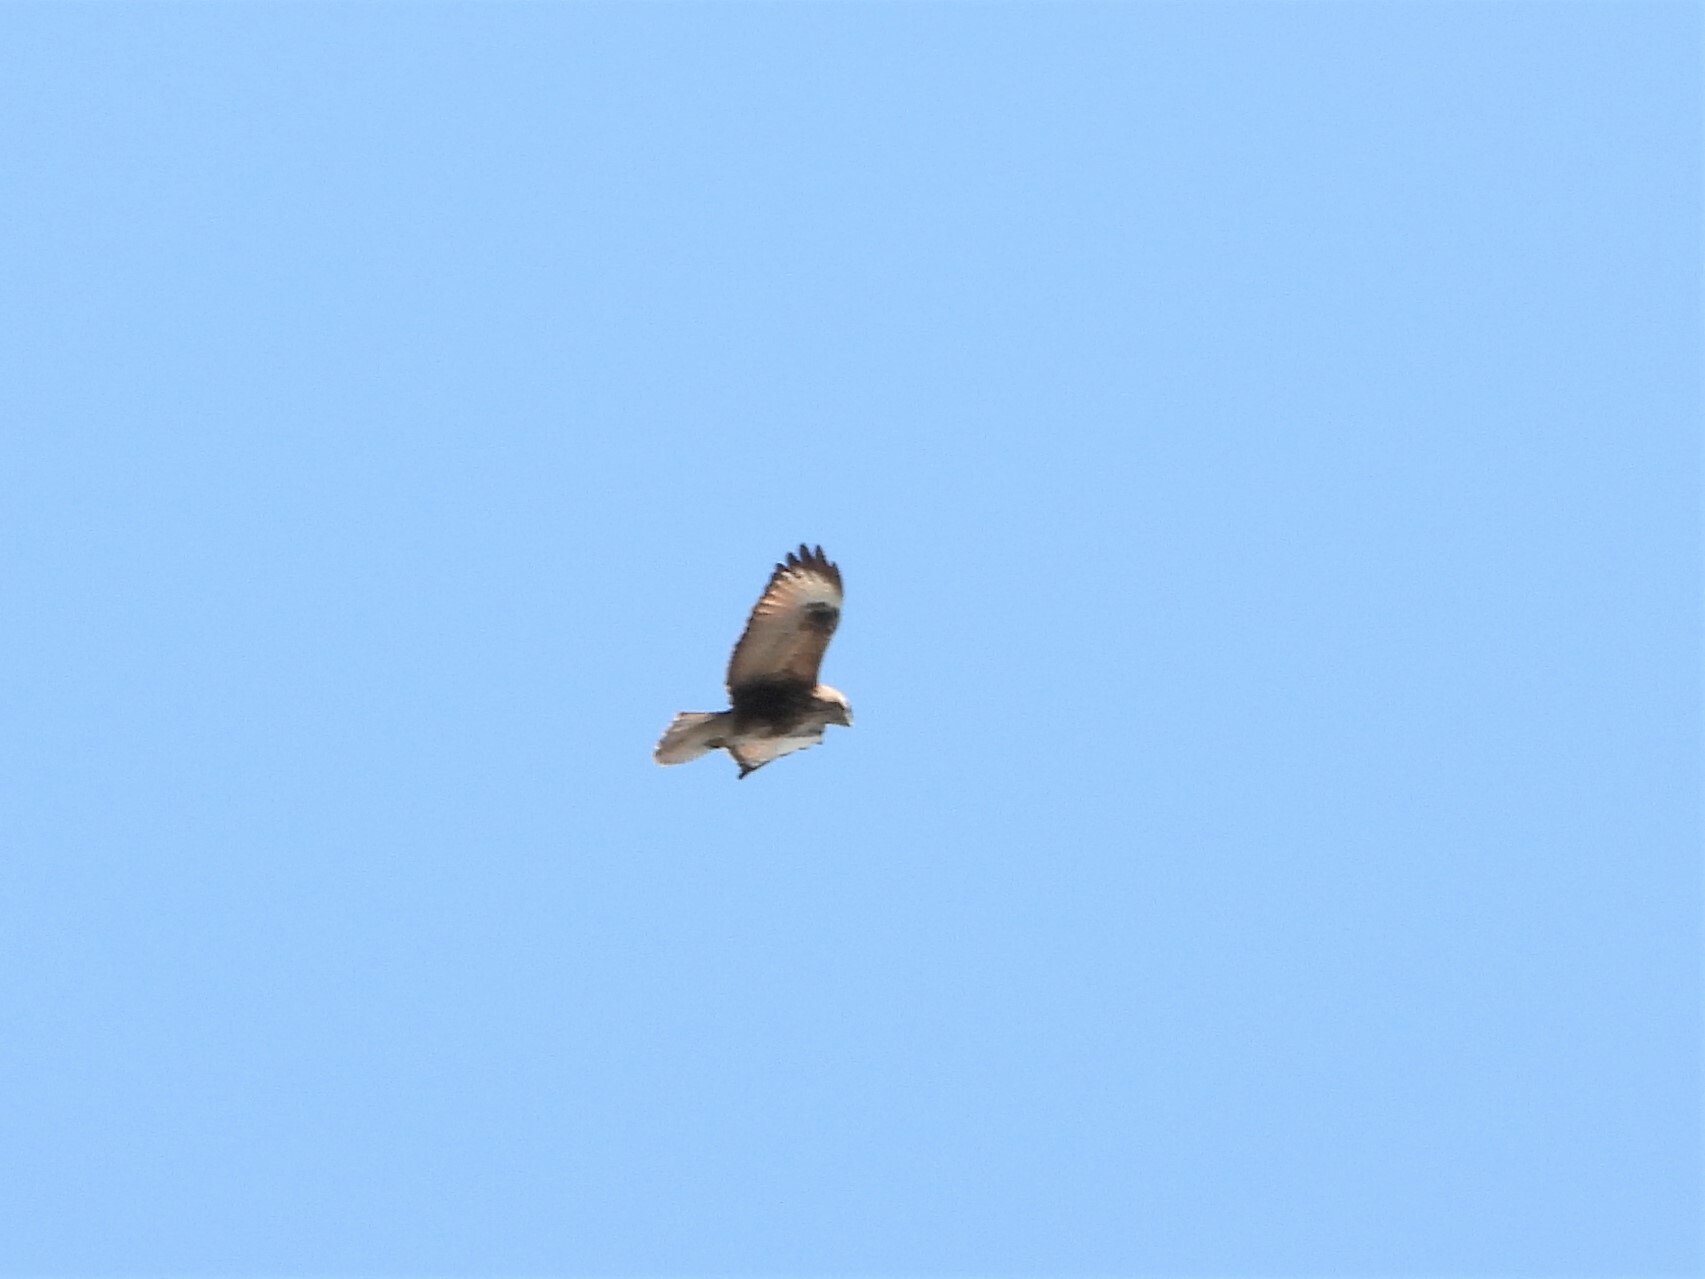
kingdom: Animalia
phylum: Chordata
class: Aves
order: Accipitriformes
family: Accipitridae
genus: Buteo
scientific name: Buteo japonicus
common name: Eastern buzzard
